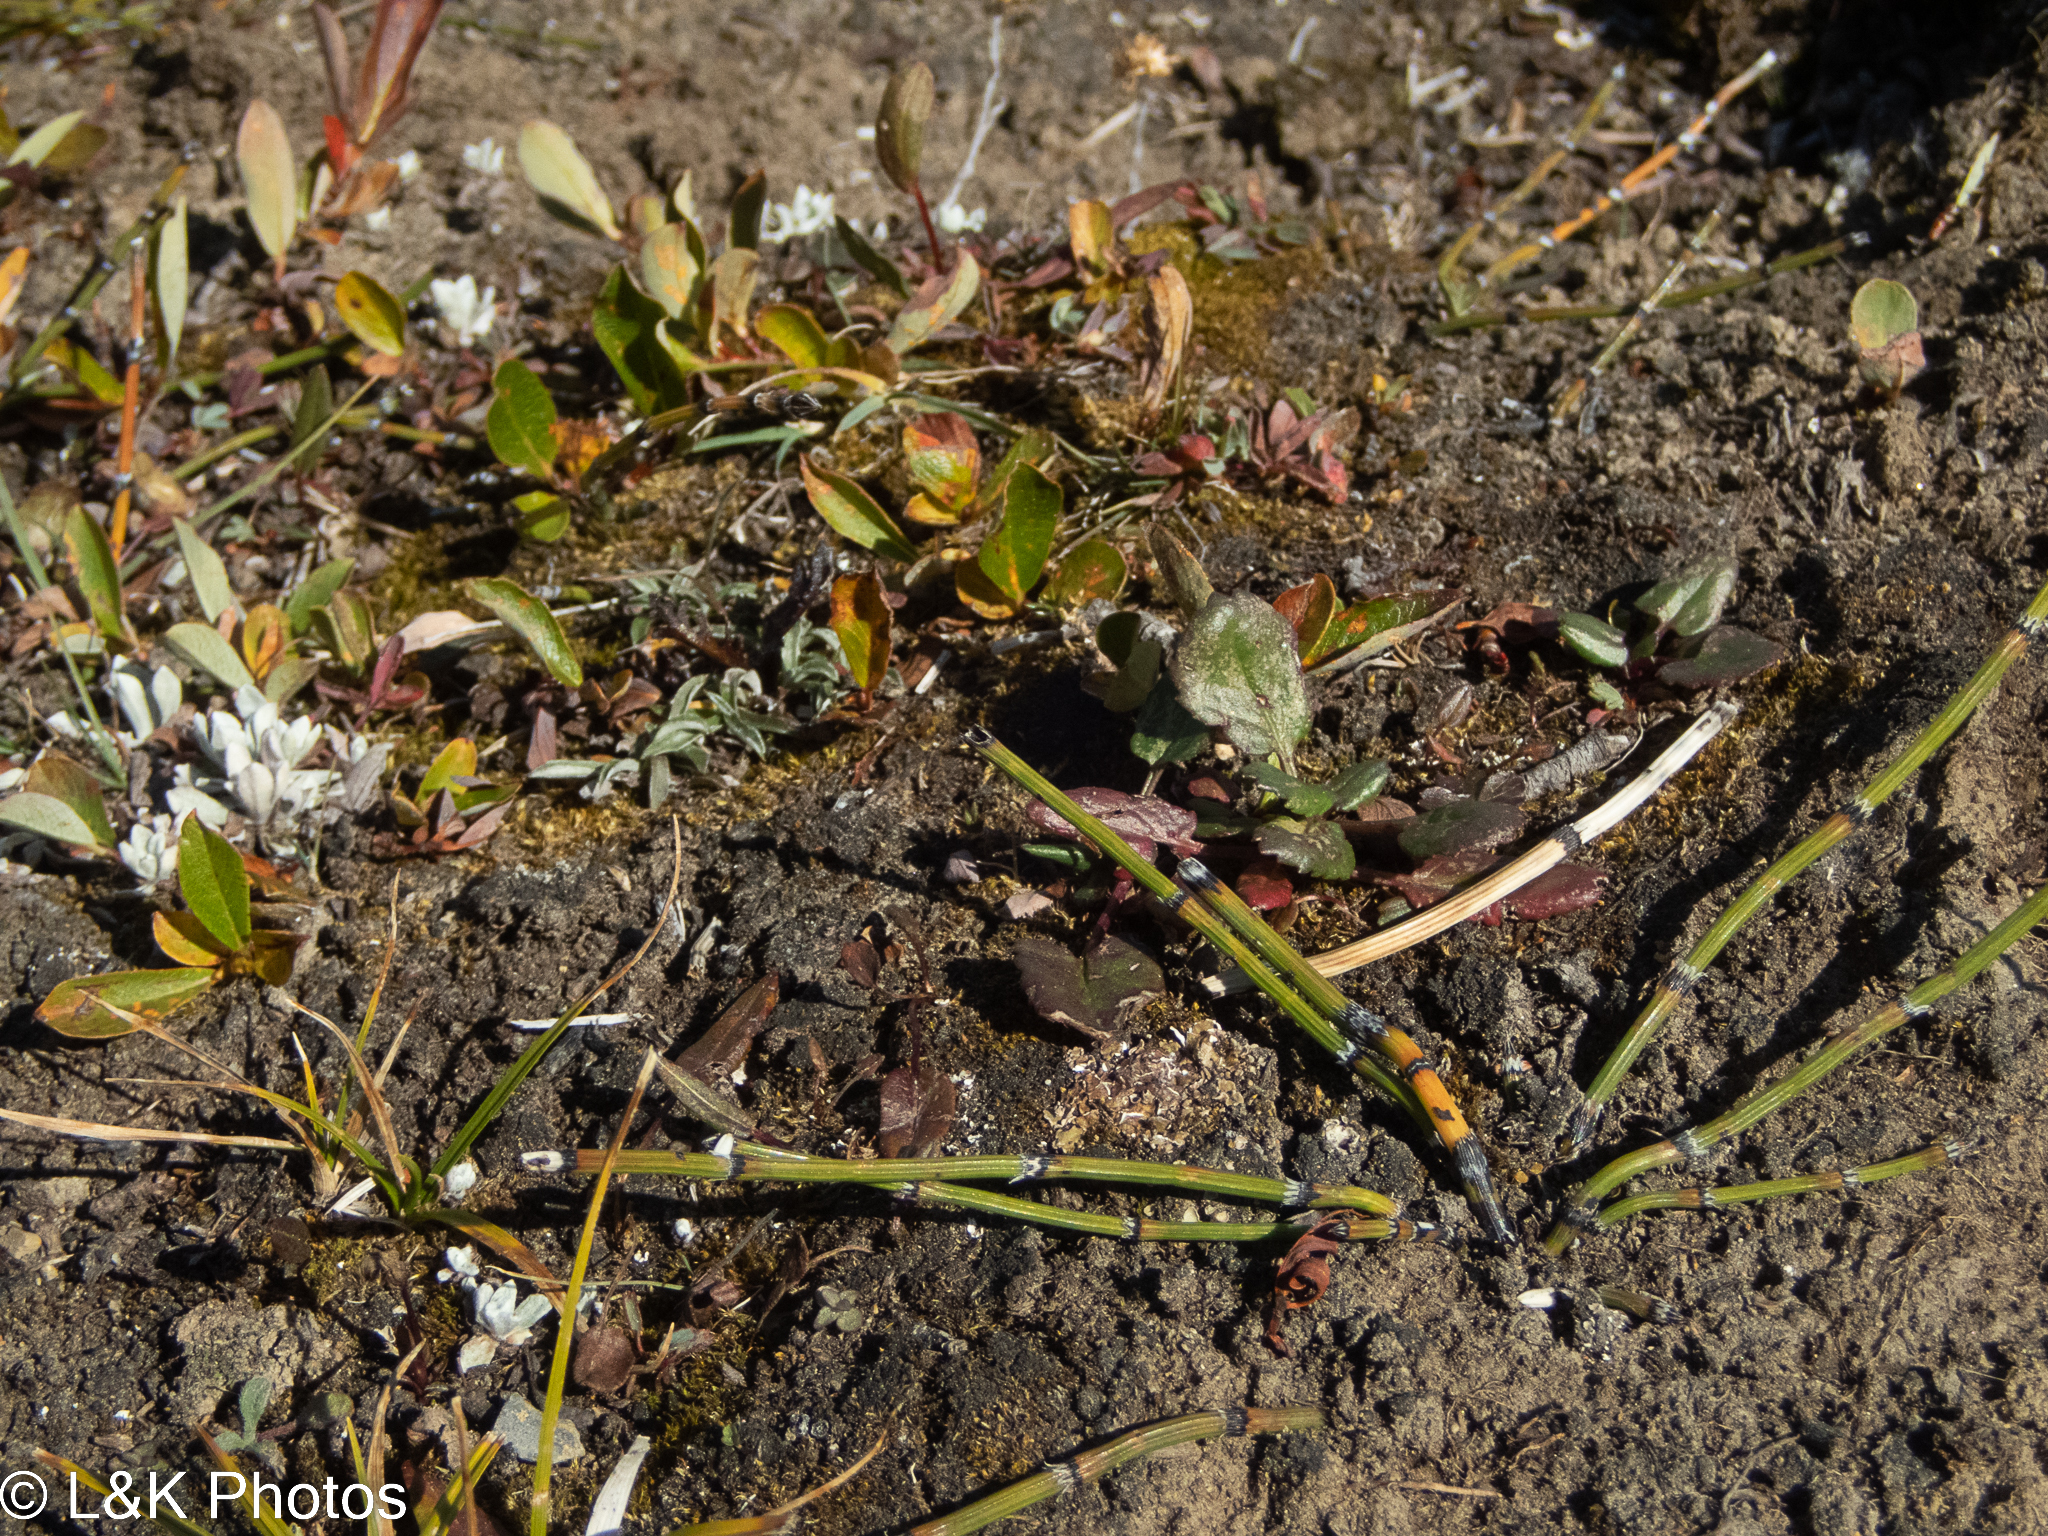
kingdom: Plantae
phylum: Tracheophyta
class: Polypodiopsida
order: Equisetales
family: Equisetaceae
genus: Equisetum
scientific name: Equisetum variegatum
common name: Variegated horsetail
